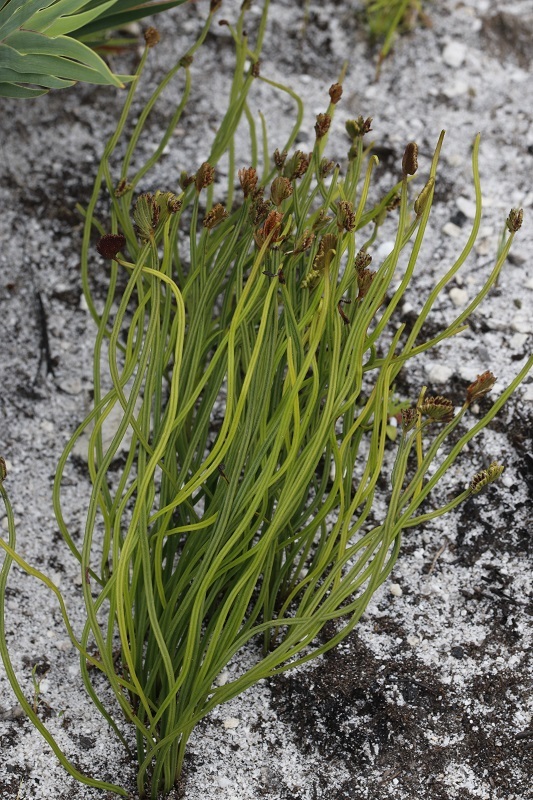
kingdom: Plantae
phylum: Tracheophyta
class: Polypodiopsida
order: Schizaeales
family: Schizaeaceae
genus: Schizaea
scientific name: Schizaea pectinata
